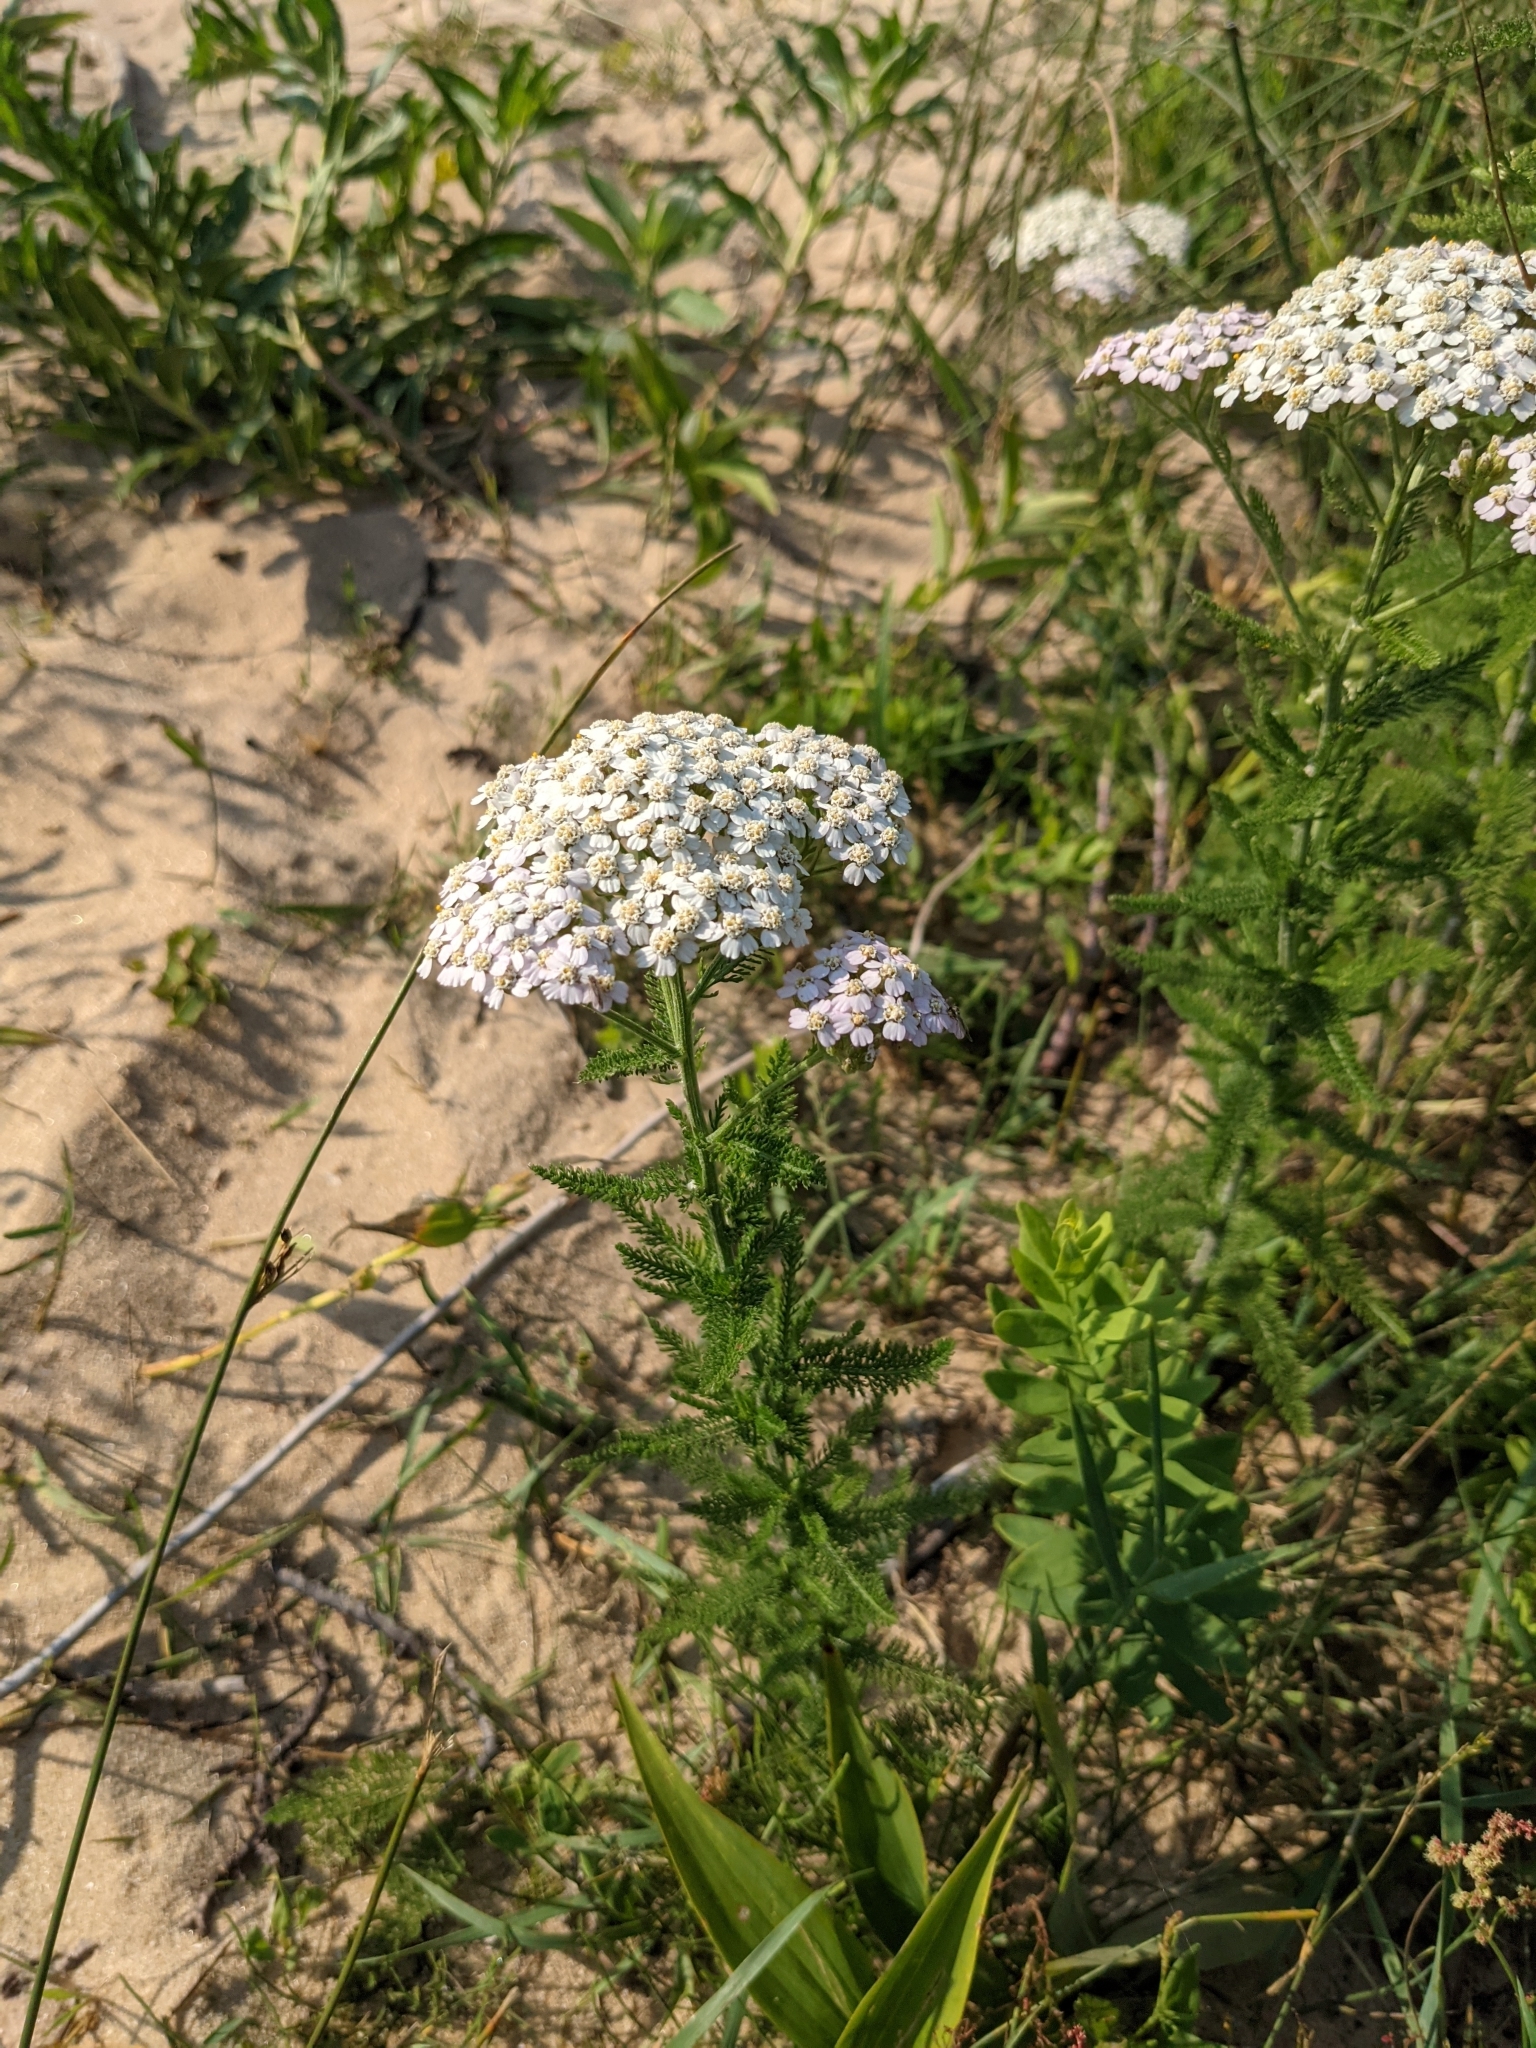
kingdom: Plantae
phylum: Tracheophyta
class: Magnoliopsida
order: Asterales
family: Asteraceae
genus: Achillea
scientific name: Achillea millefolium
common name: Yarrow
